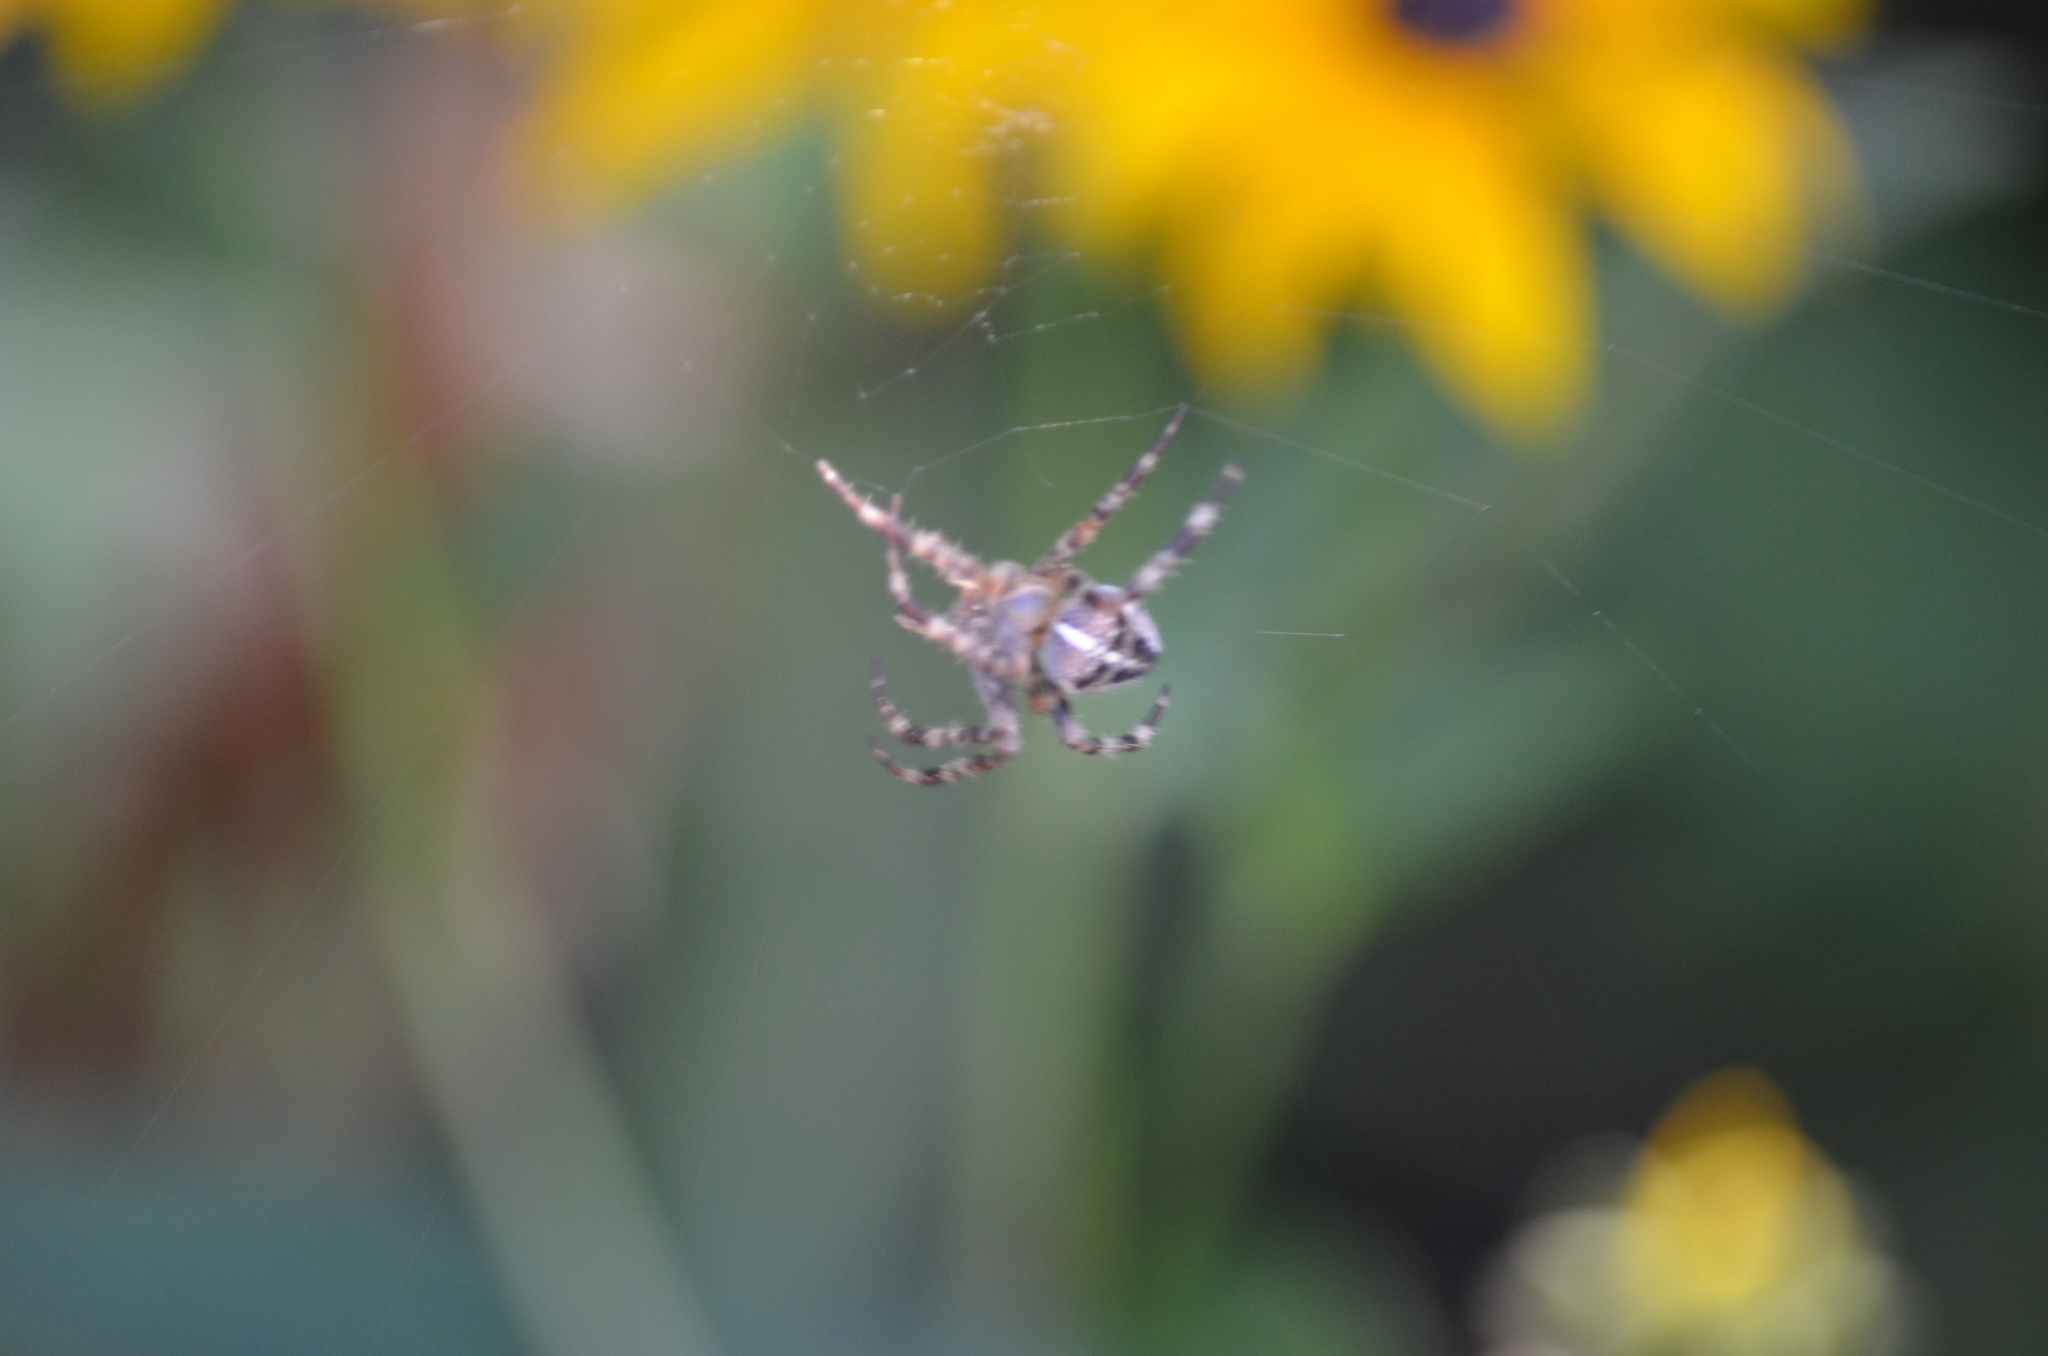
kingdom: Animalia
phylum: Arthropoda
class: Arachnida
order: Araneae
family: Araneidae
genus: Araneus
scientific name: Araneus diadematus
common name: Cross orbweaver
